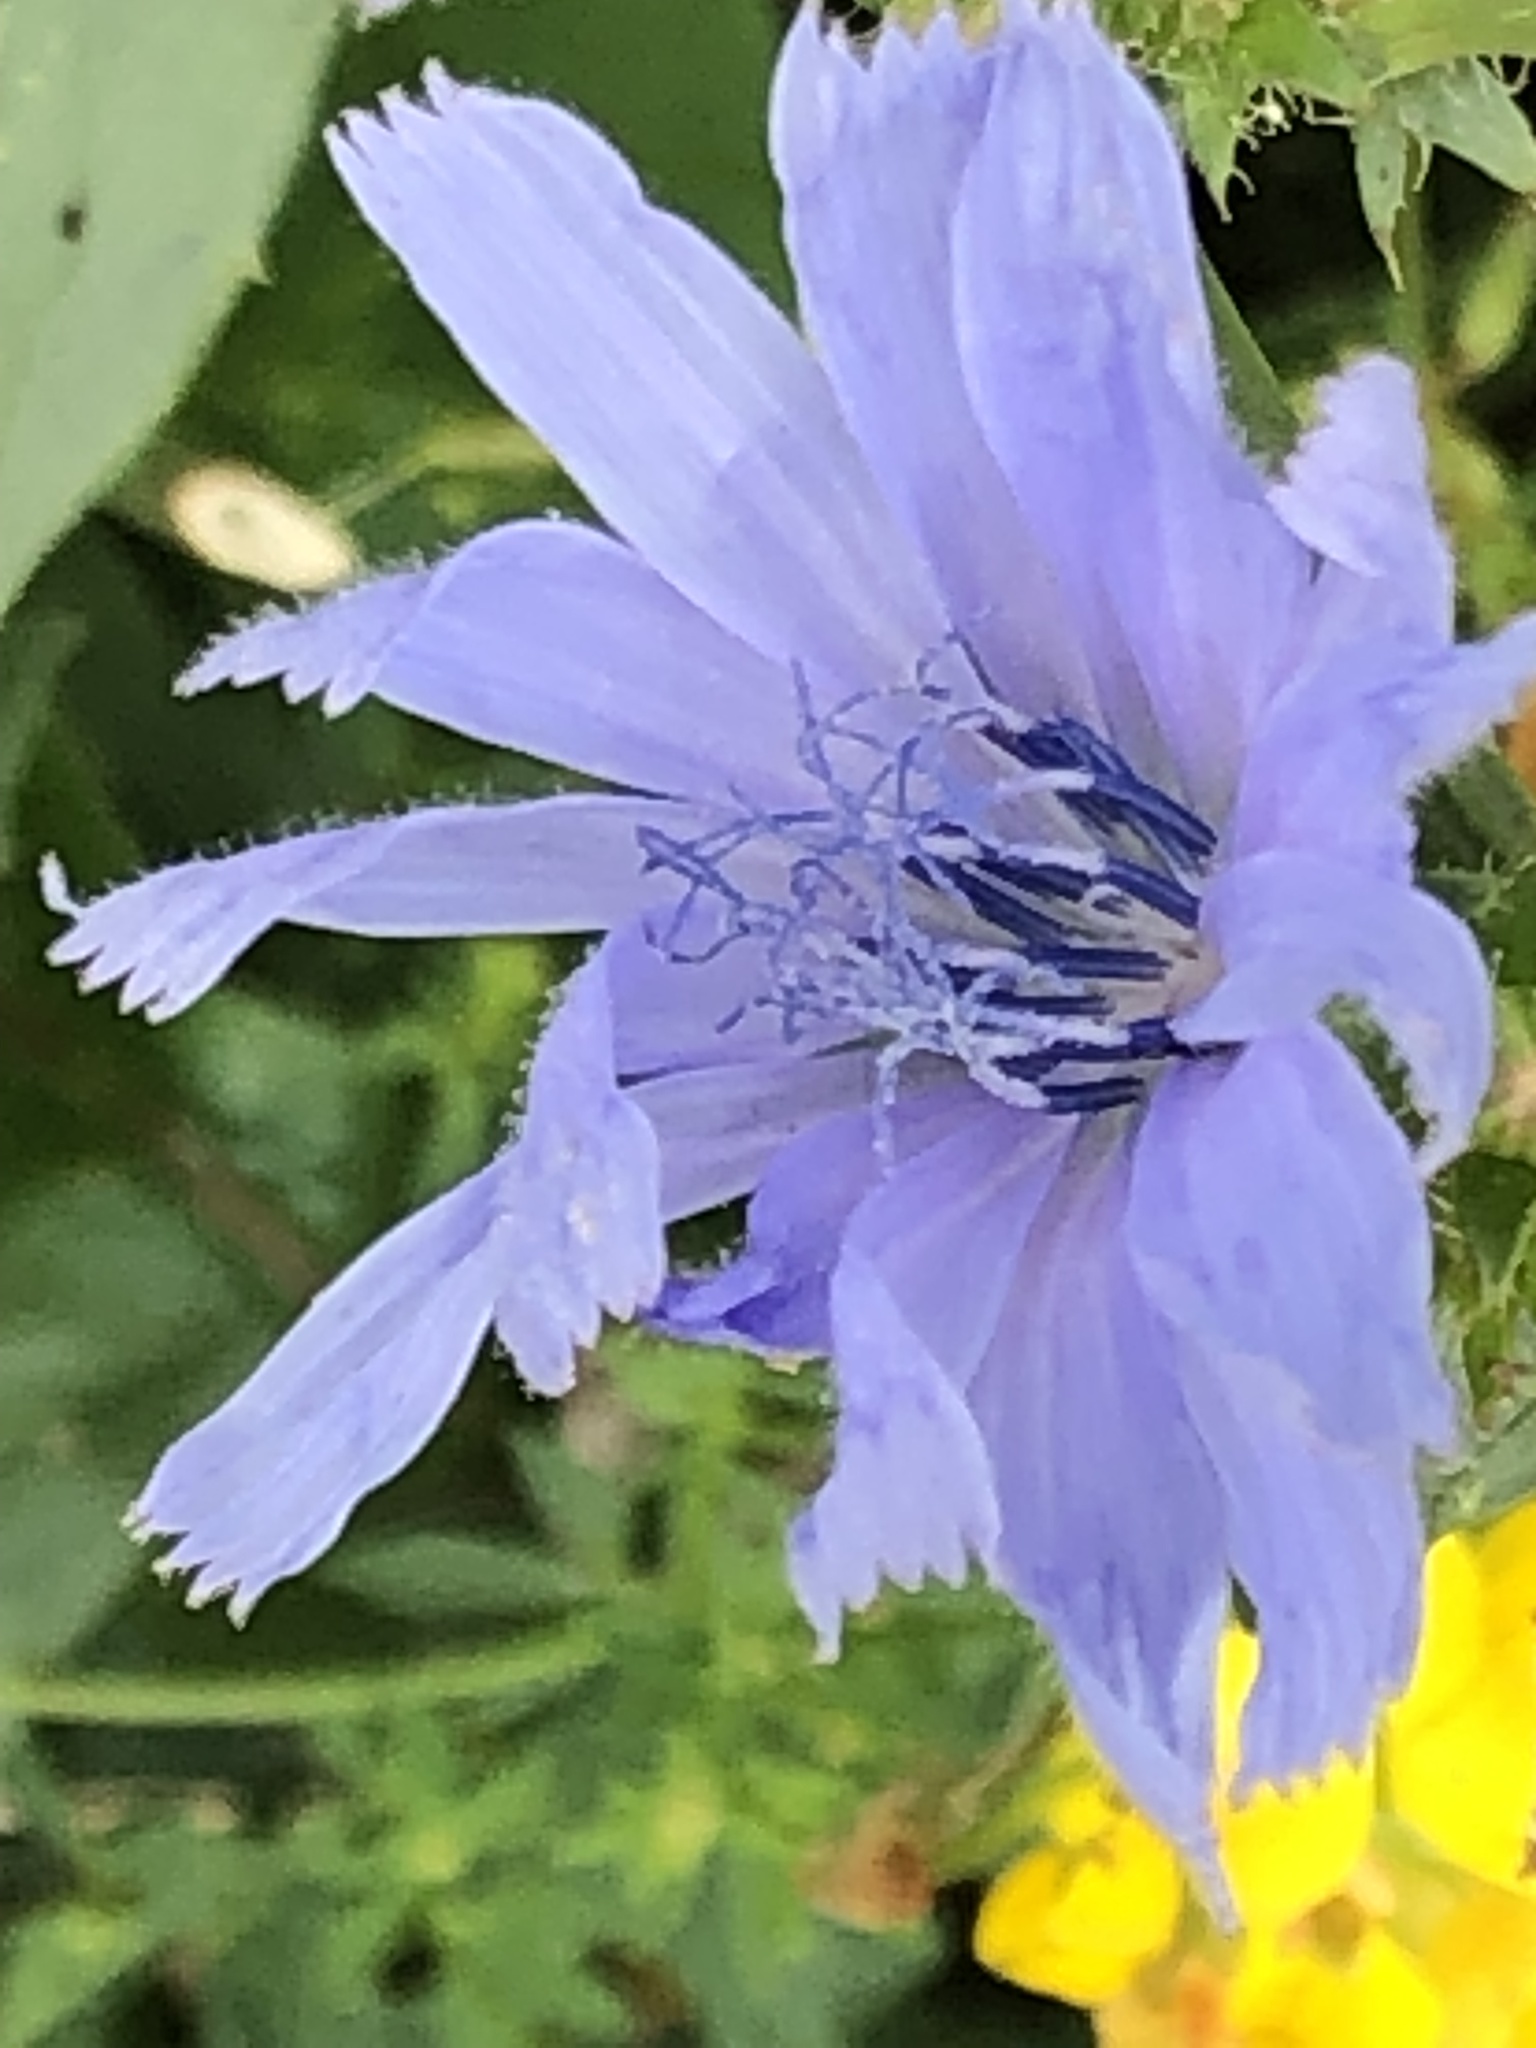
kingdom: Plantae
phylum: Tracheophyta
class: Magnoliopsida
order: Asterales
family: Asteraceae
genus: Cichorium
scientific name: Cichorium intybus
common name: Chicory
